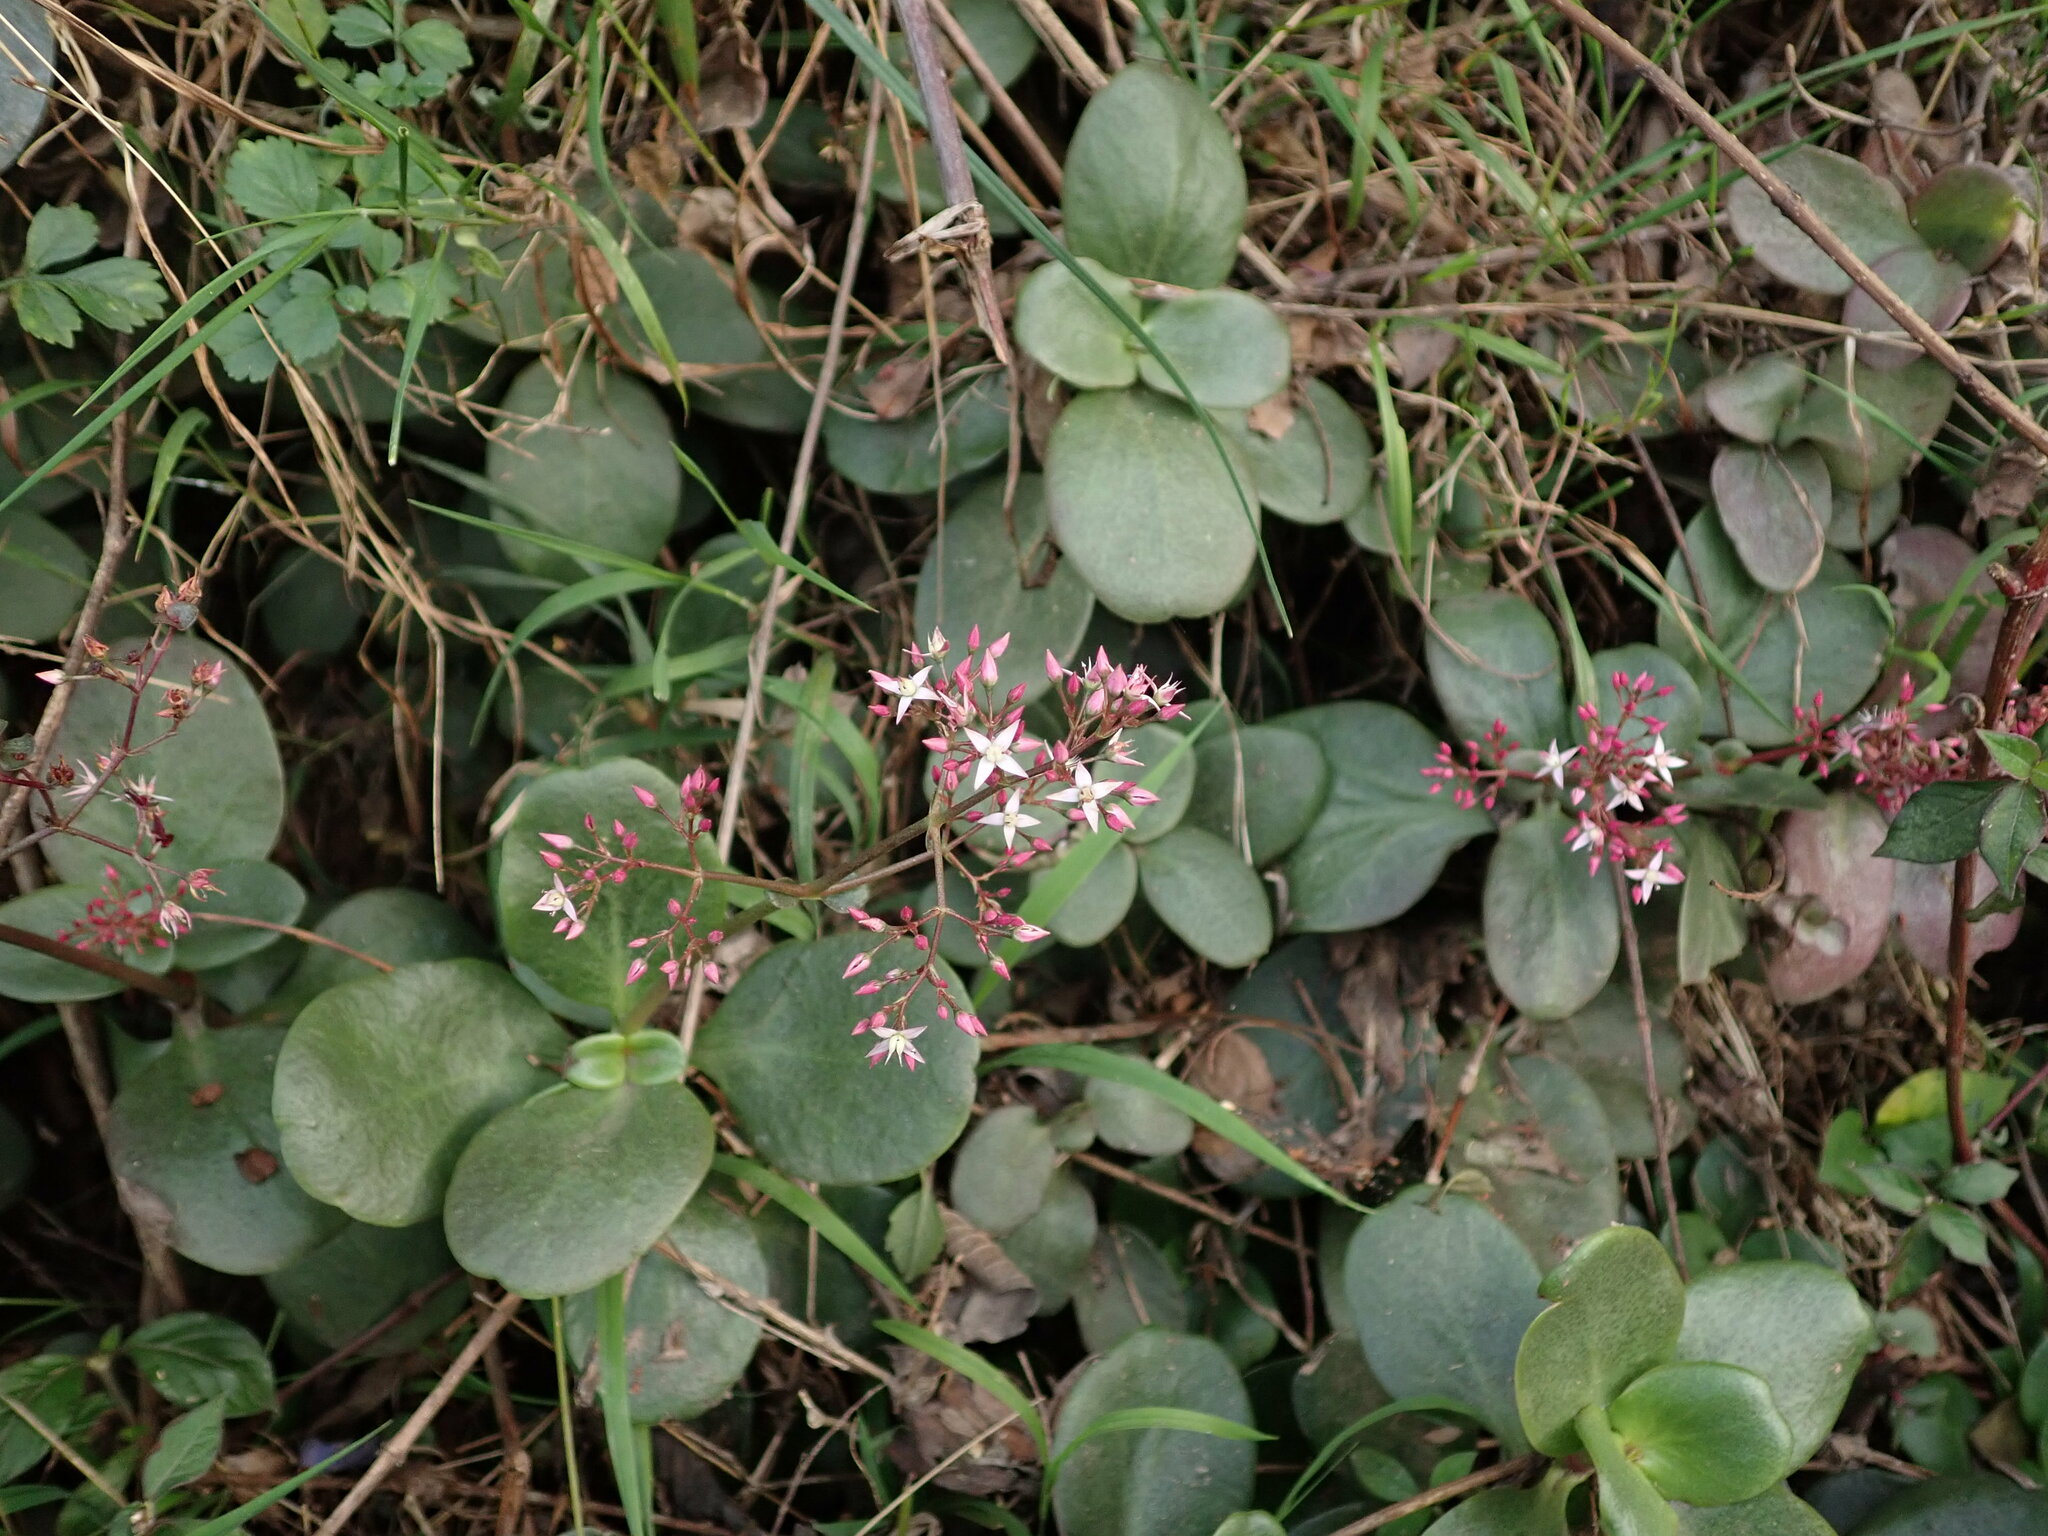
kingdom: Plantae
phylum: Tracheophyta
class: Magnoliopsida
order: Saxifragales
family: Crassulaceae
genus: Crassula
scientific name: Crassula multicava
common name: Cape province pygmyweed
